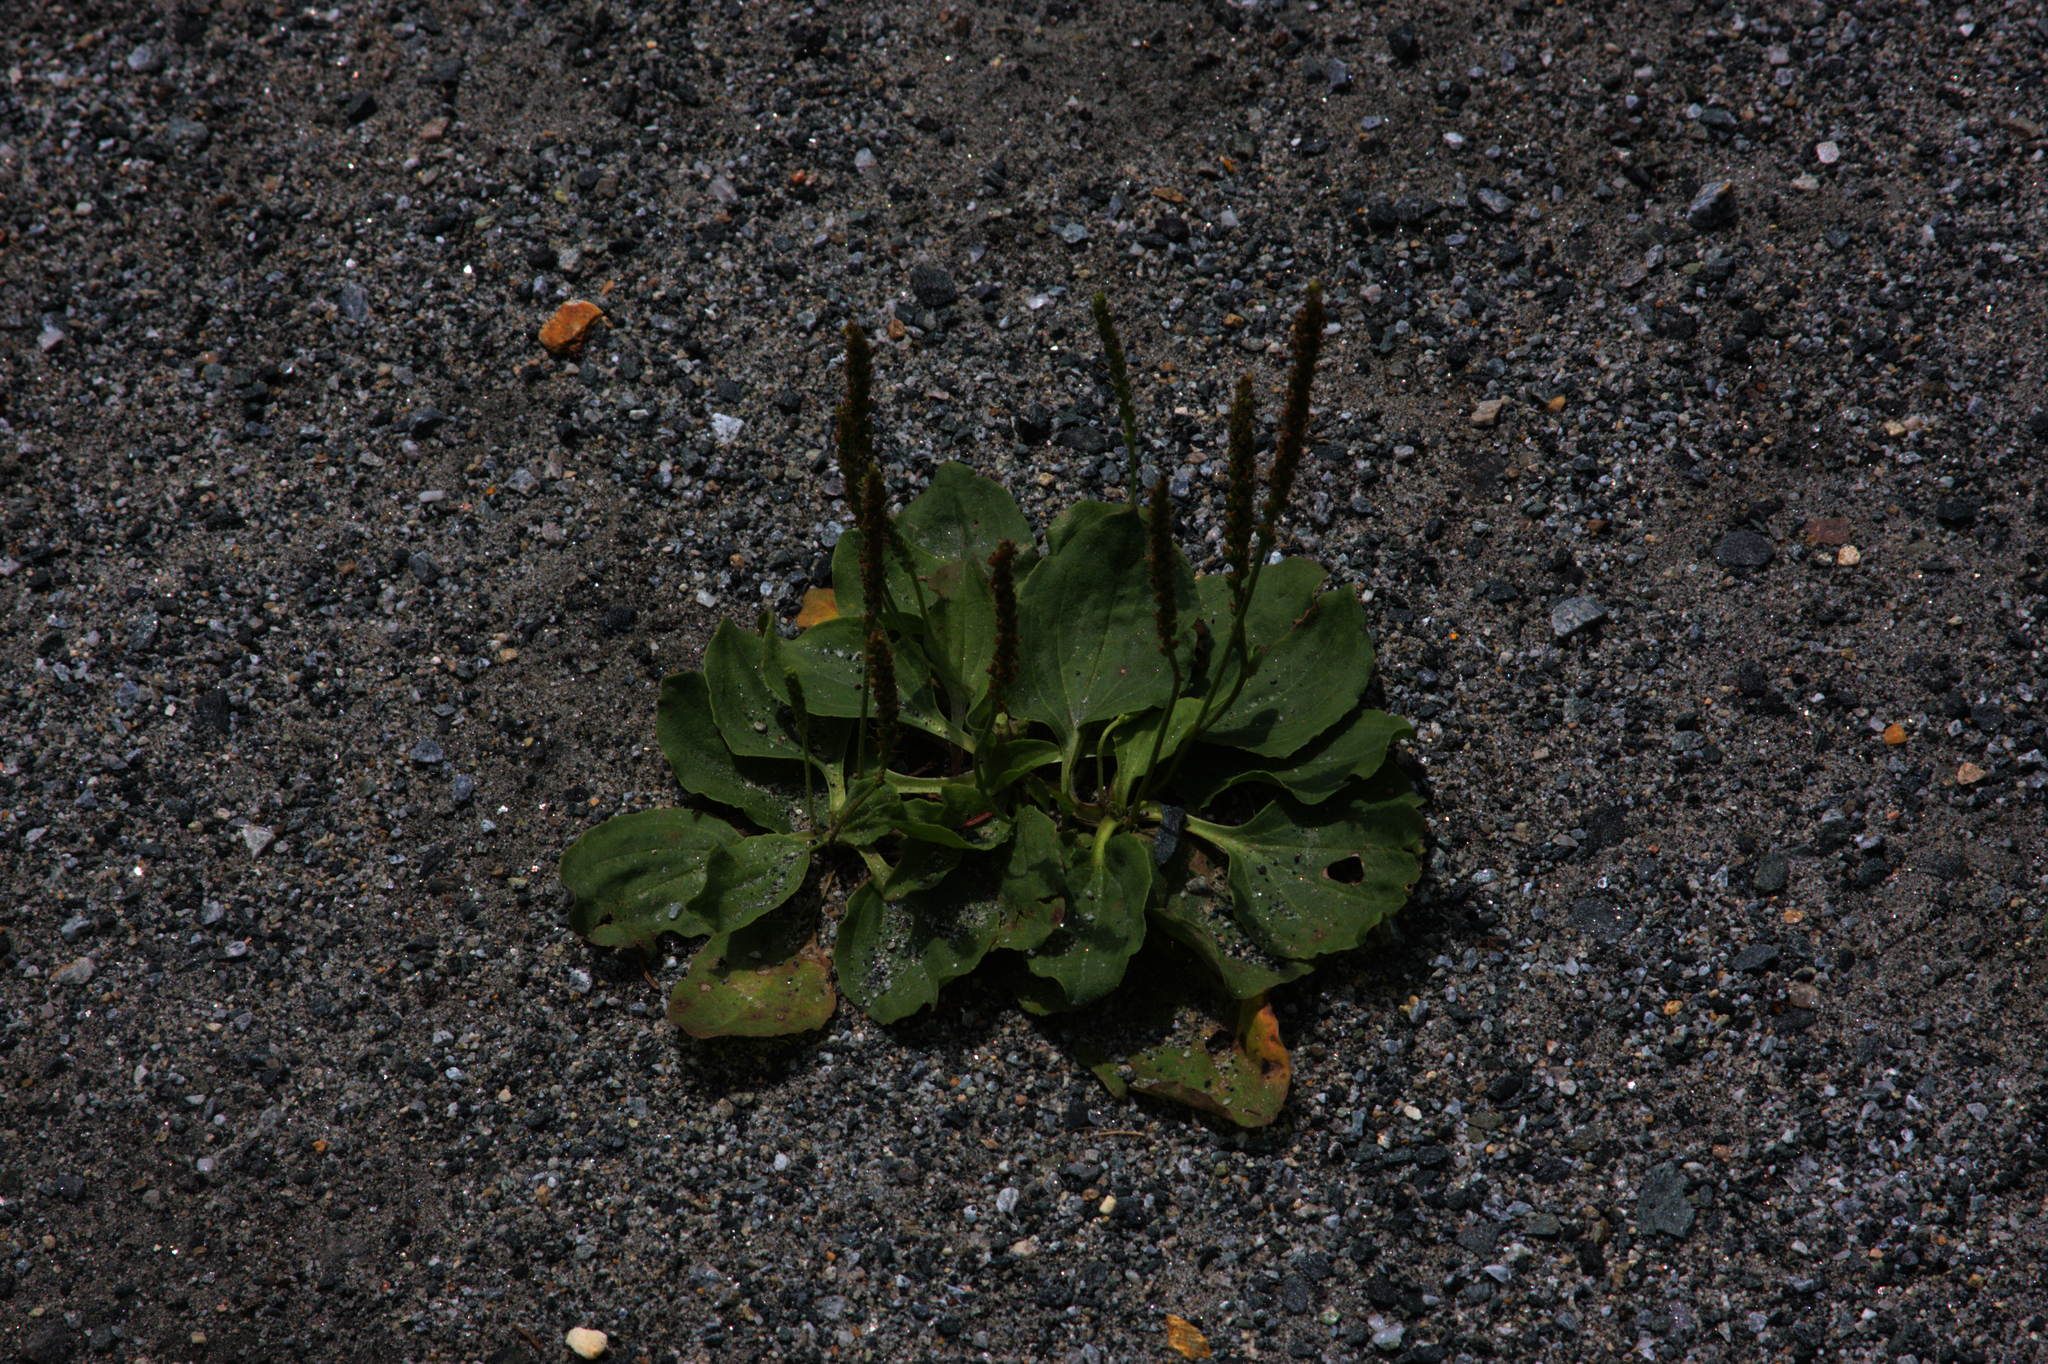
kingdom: Plantae
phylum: Tracheophyta
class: Magnoliopsida
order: Lamiales
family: Plantaginaceae
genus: Plantago
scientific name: Plantago major
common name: Common plantain
